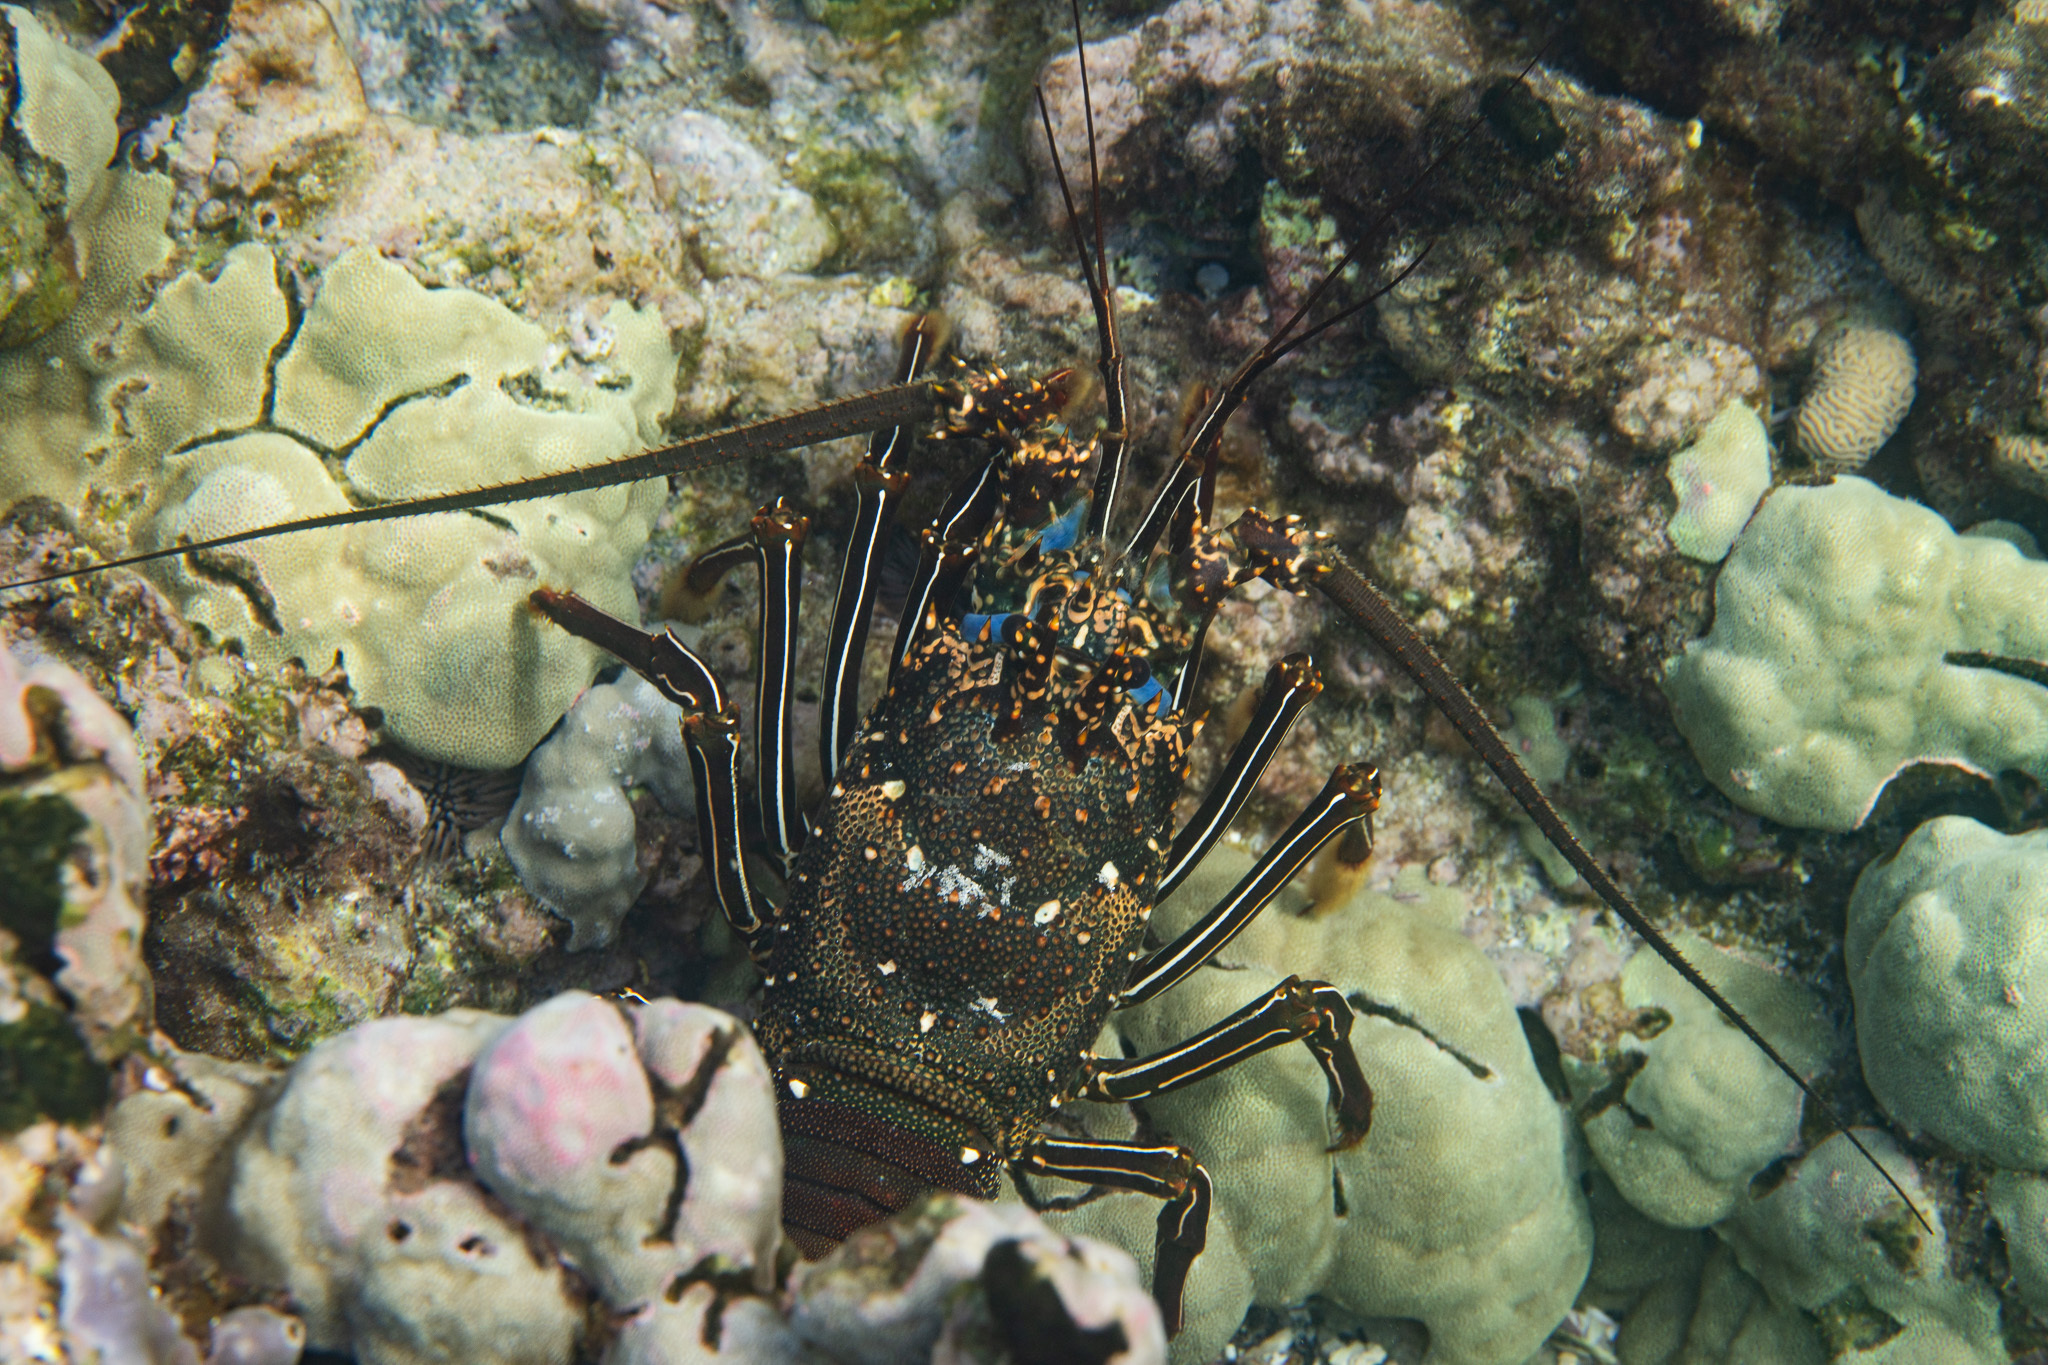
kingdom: Animalia
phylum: Arthropoda
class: Malacostraca
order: Decapoda
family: Palinuridae
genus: Panulirus
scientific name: Panulirus penicillatus
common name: Pronghorn spiny lobster
